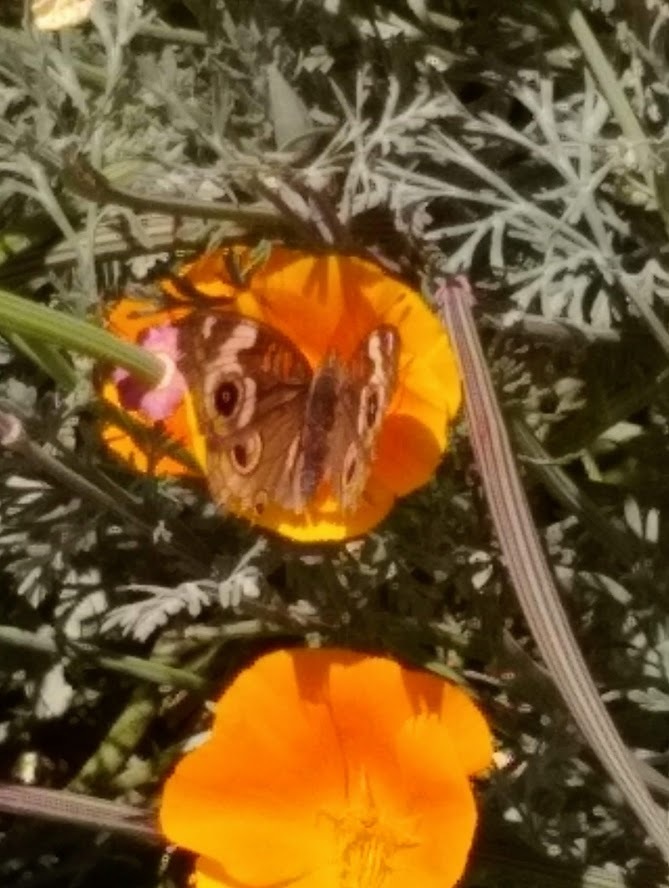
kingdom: Animalia
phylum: Arthropoda
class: Insecta
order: Lepidoptera
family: Nymphalidae
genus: Junonia
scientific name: Junonia grisea
